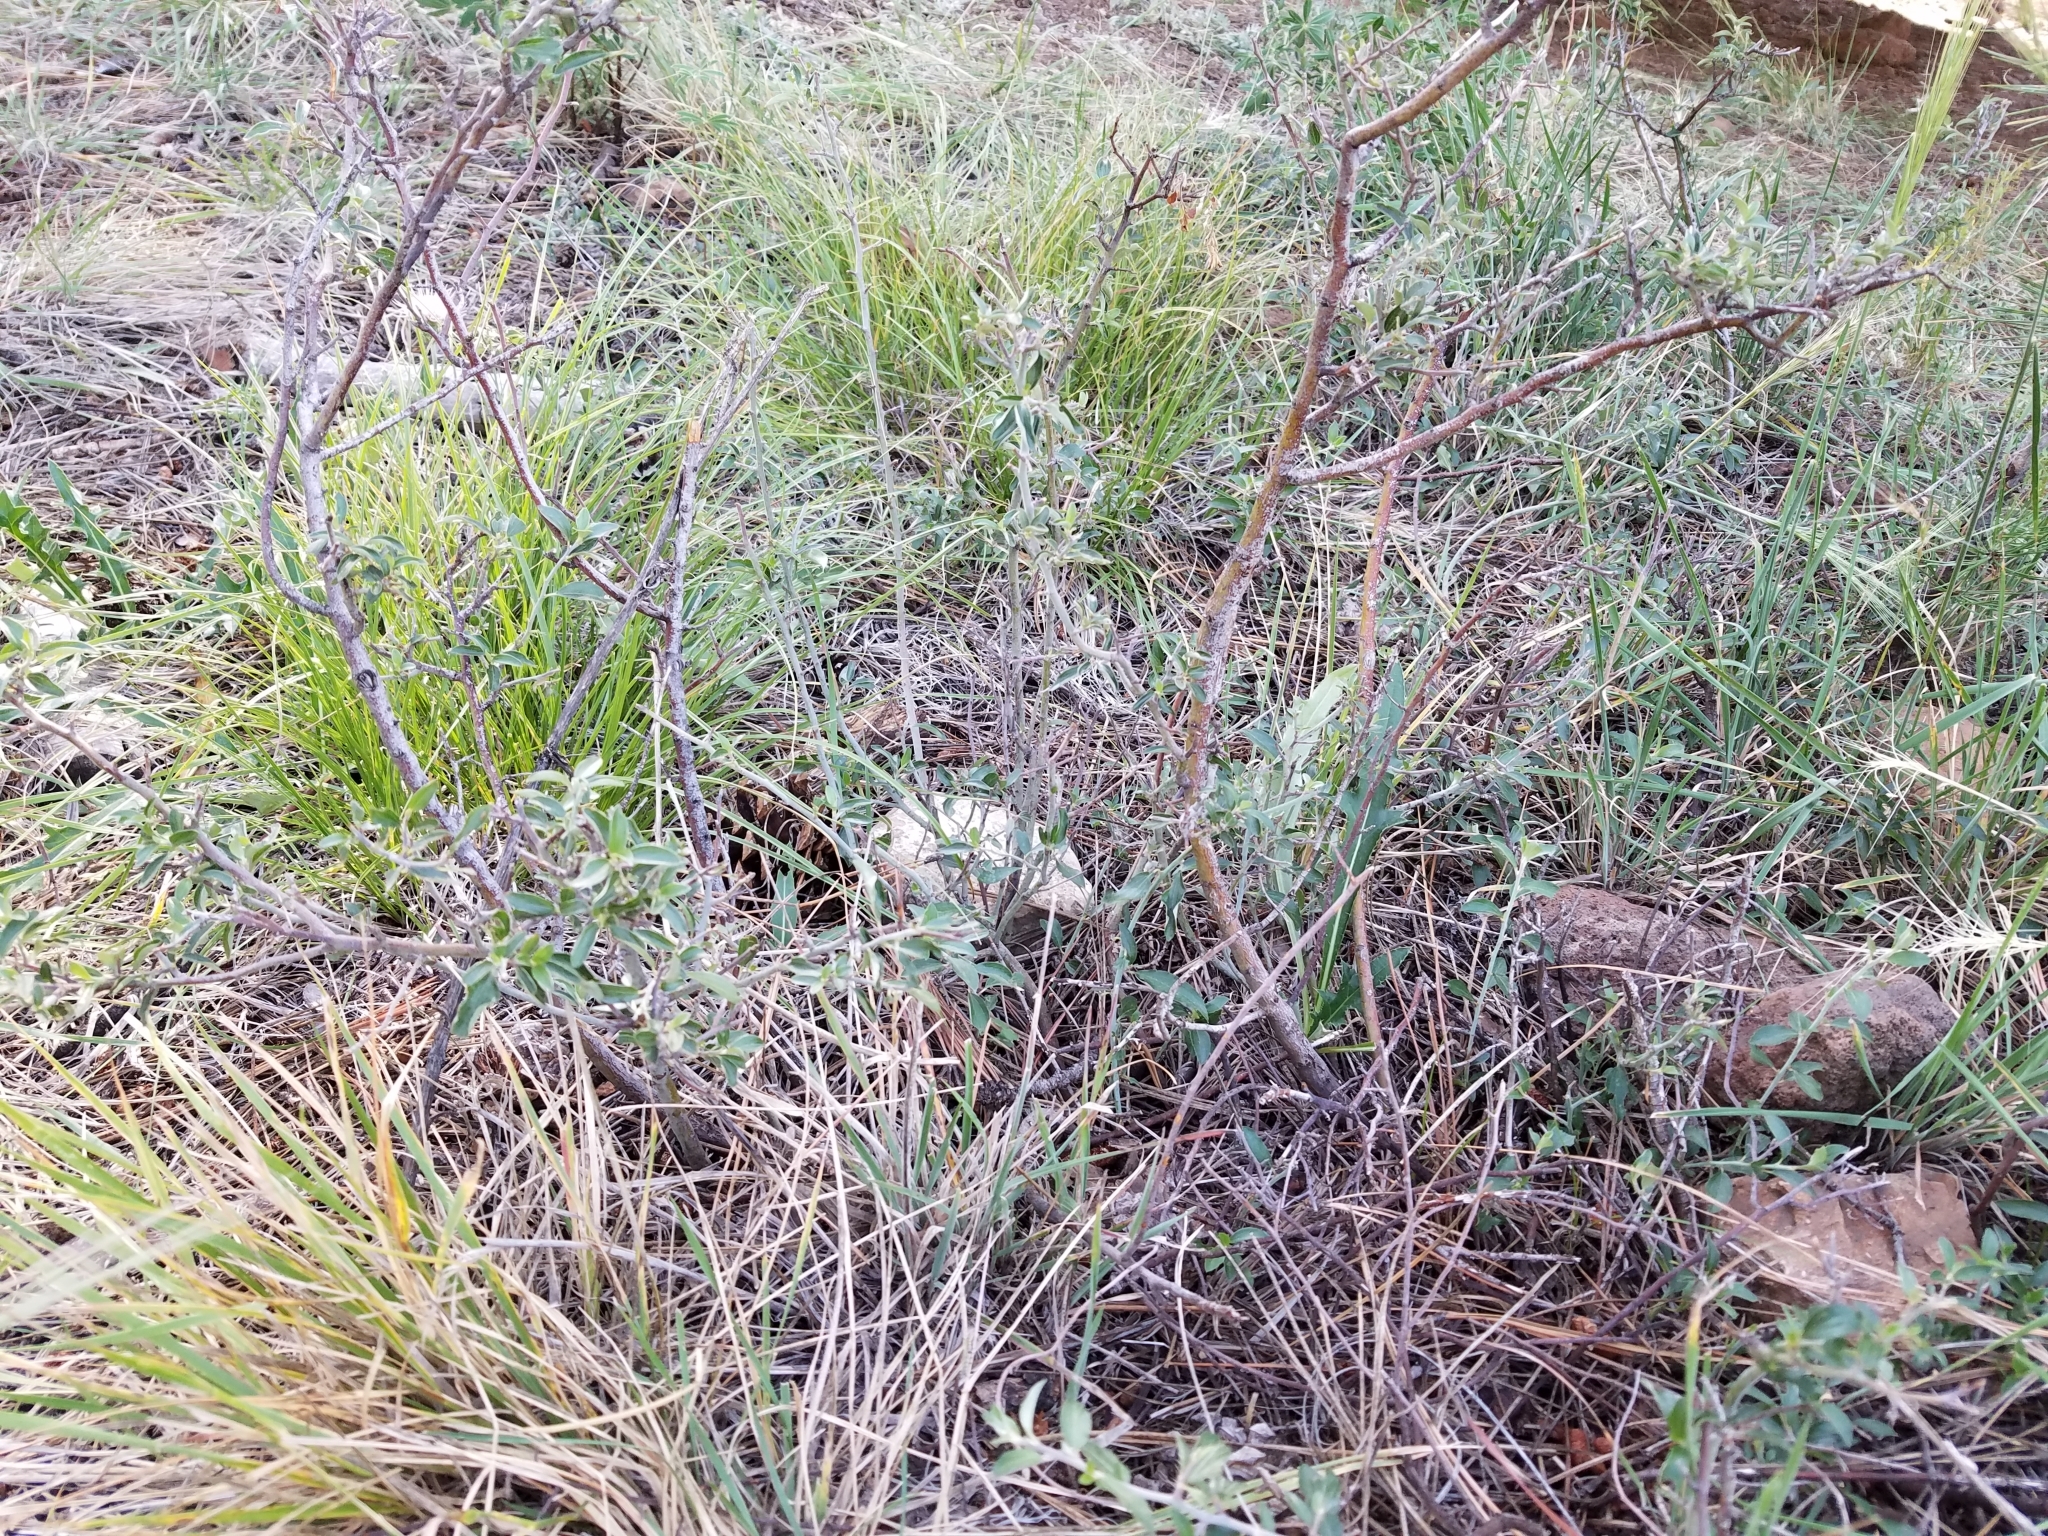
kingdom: Plantae
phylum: Tracheophyta
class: Magnoliopsida
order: Rosales
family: Rhamnaceae
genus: Ceanothus
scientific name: Ceanothus fendleri
